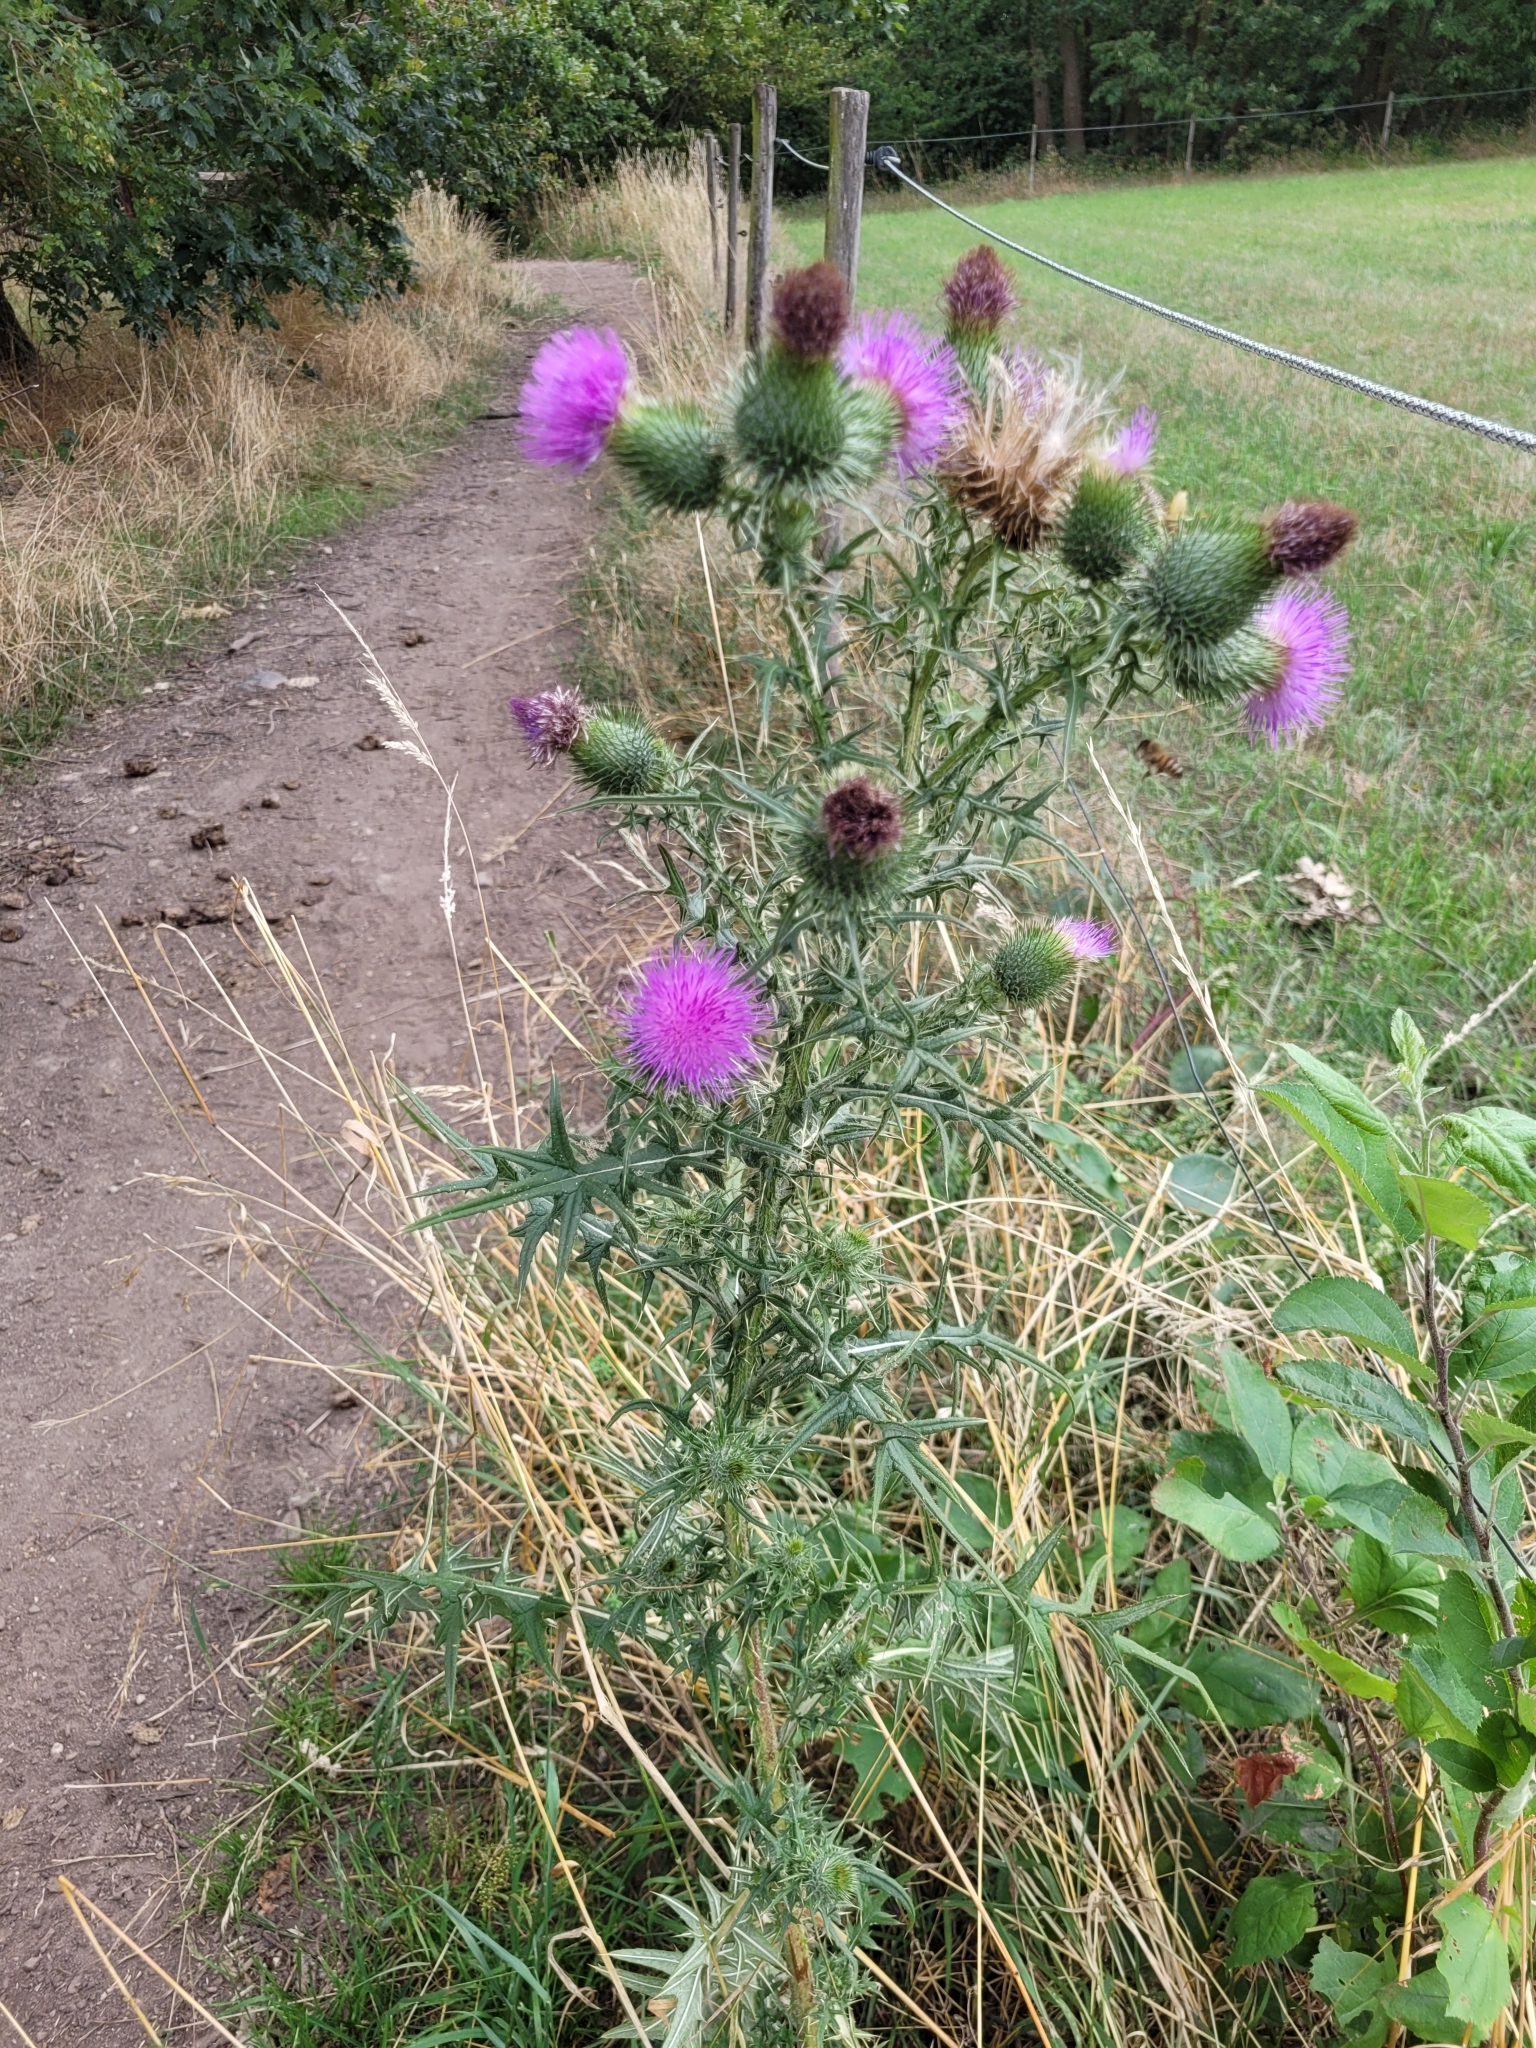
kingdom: Plantae
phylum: Tracheophyta
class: Magnoliopsida
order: Asterales
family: Asteraceae
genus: Cirsium
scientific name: Cirsium vulgare
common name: Bull thistle
